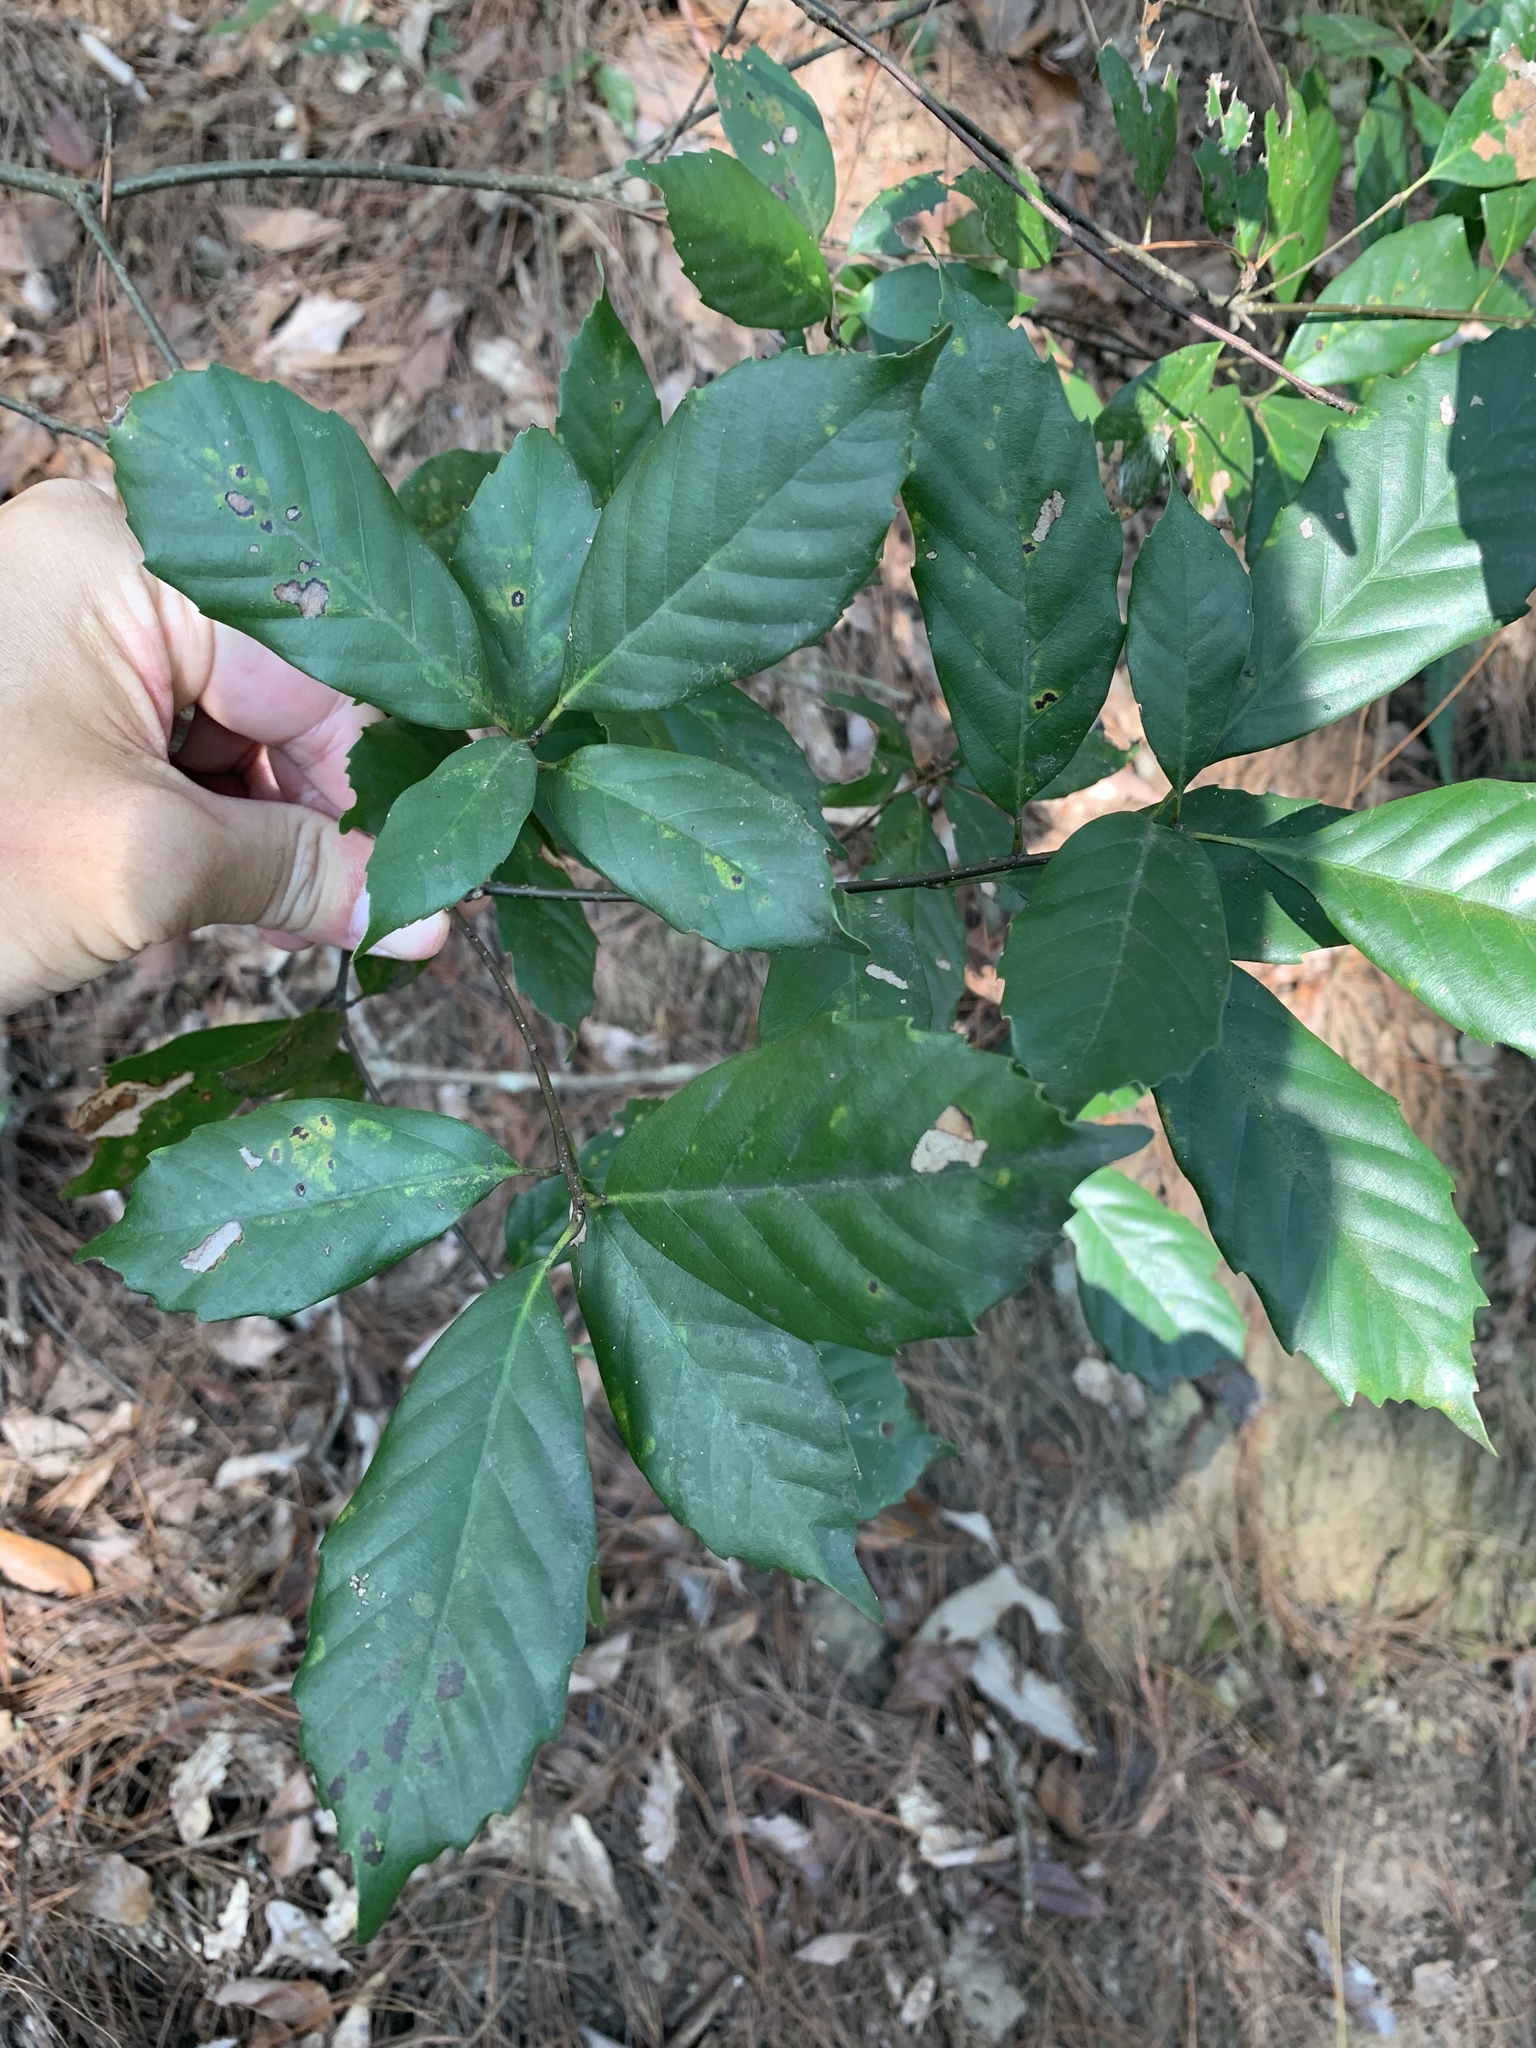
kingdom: Plantae
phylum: Tracheophyta
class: Magnoliopsida
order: Fagales
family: Fagaceae
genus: Quercus
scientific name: Quercus glauca
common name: Ring-cup oak
